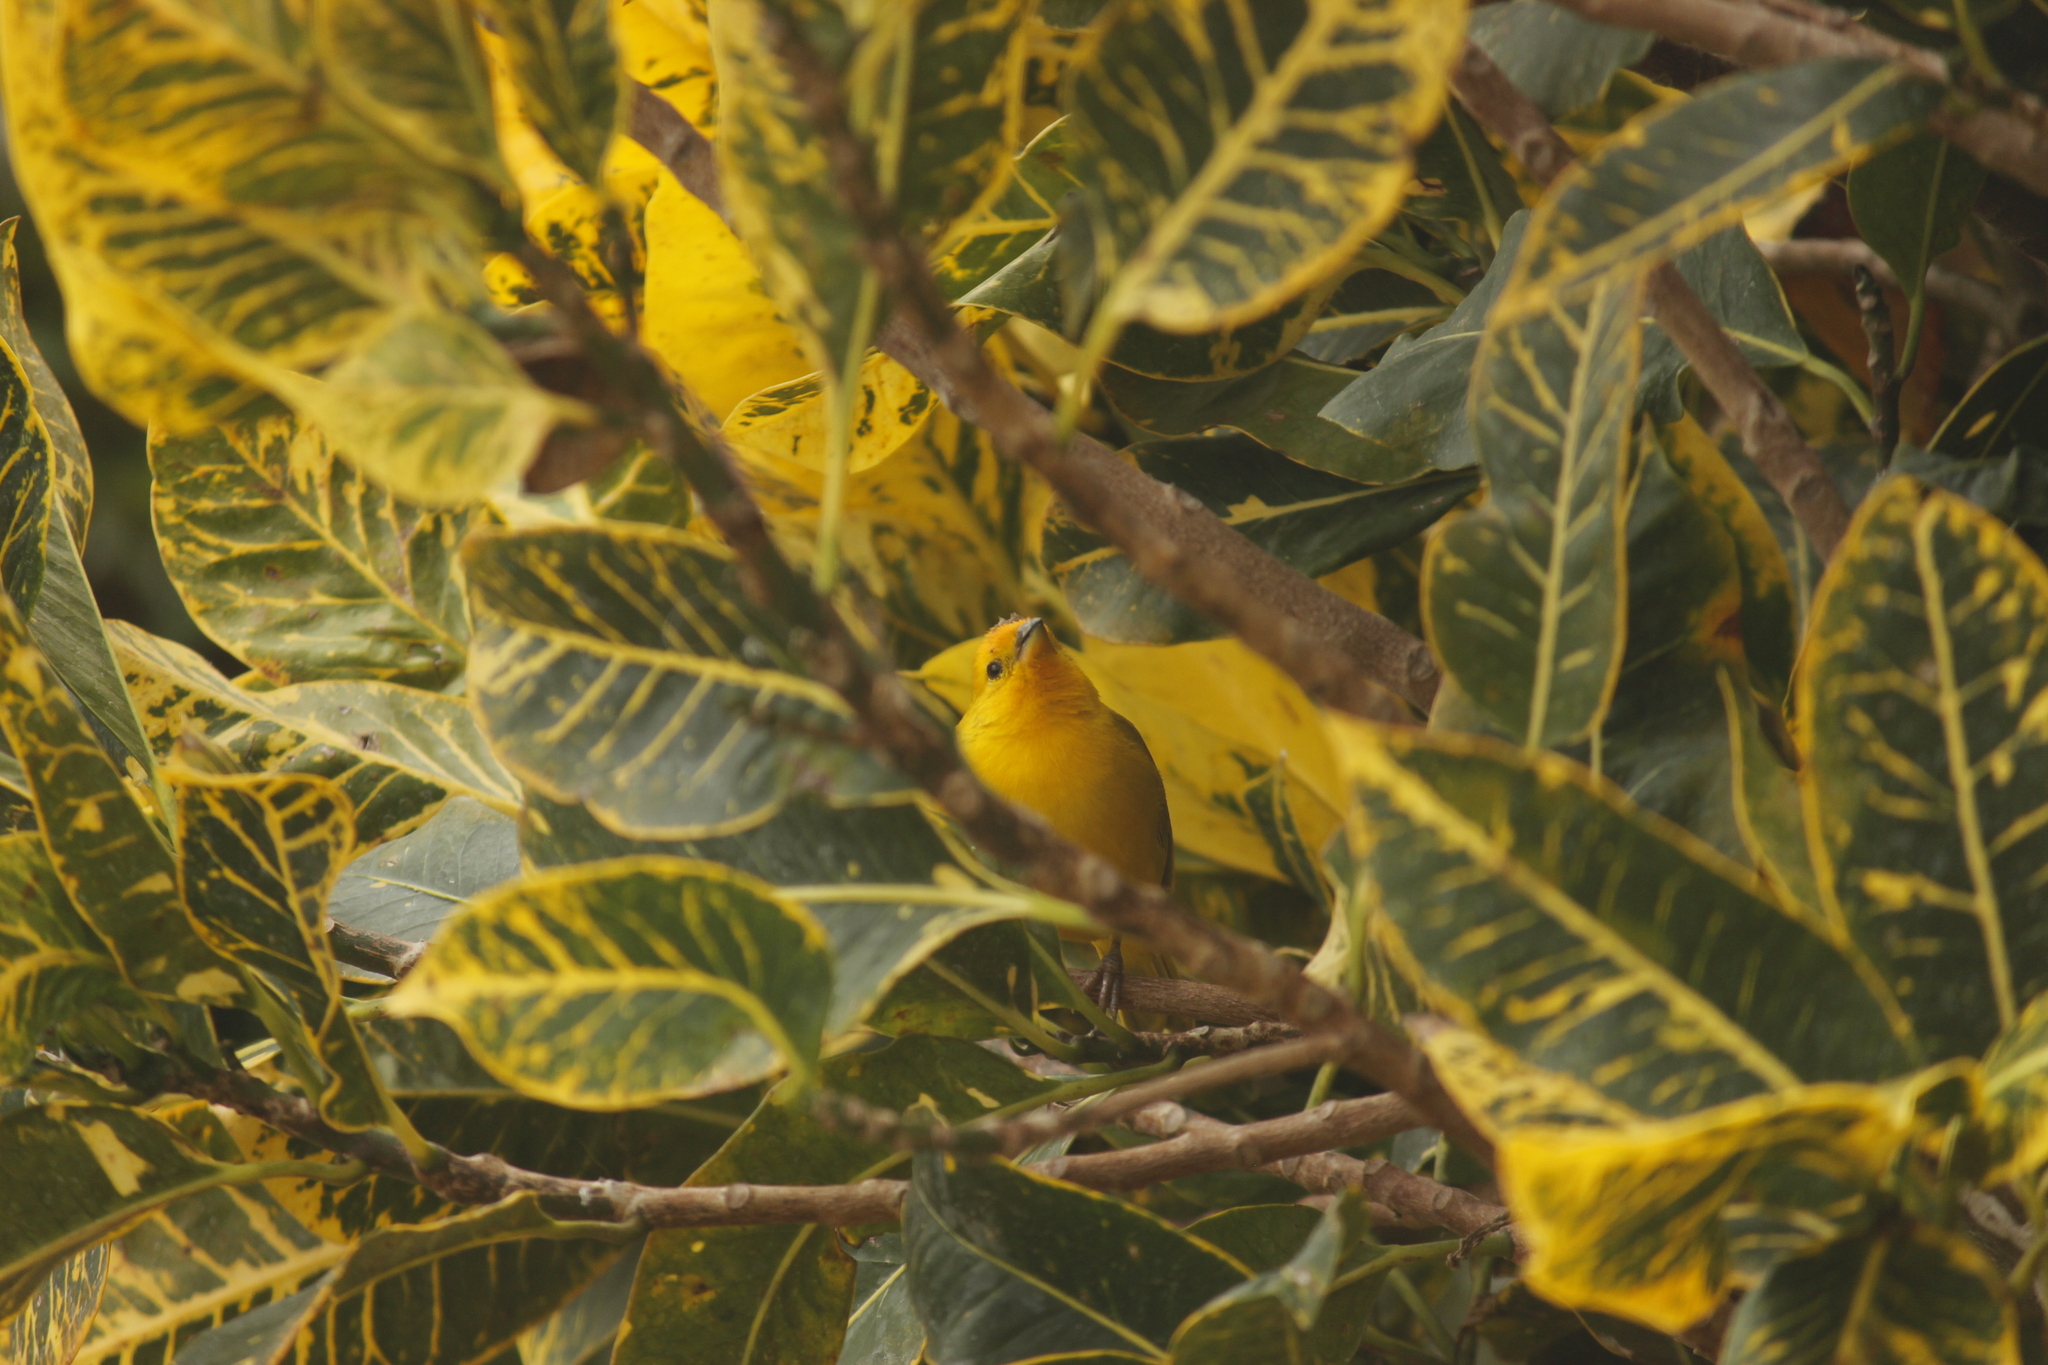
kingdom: Animalia
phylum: Chordata
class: Aves
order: Passeriformes
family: Thraupidae
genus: Sicalis
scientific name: Sicalis flaveola
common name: Saffron finch
